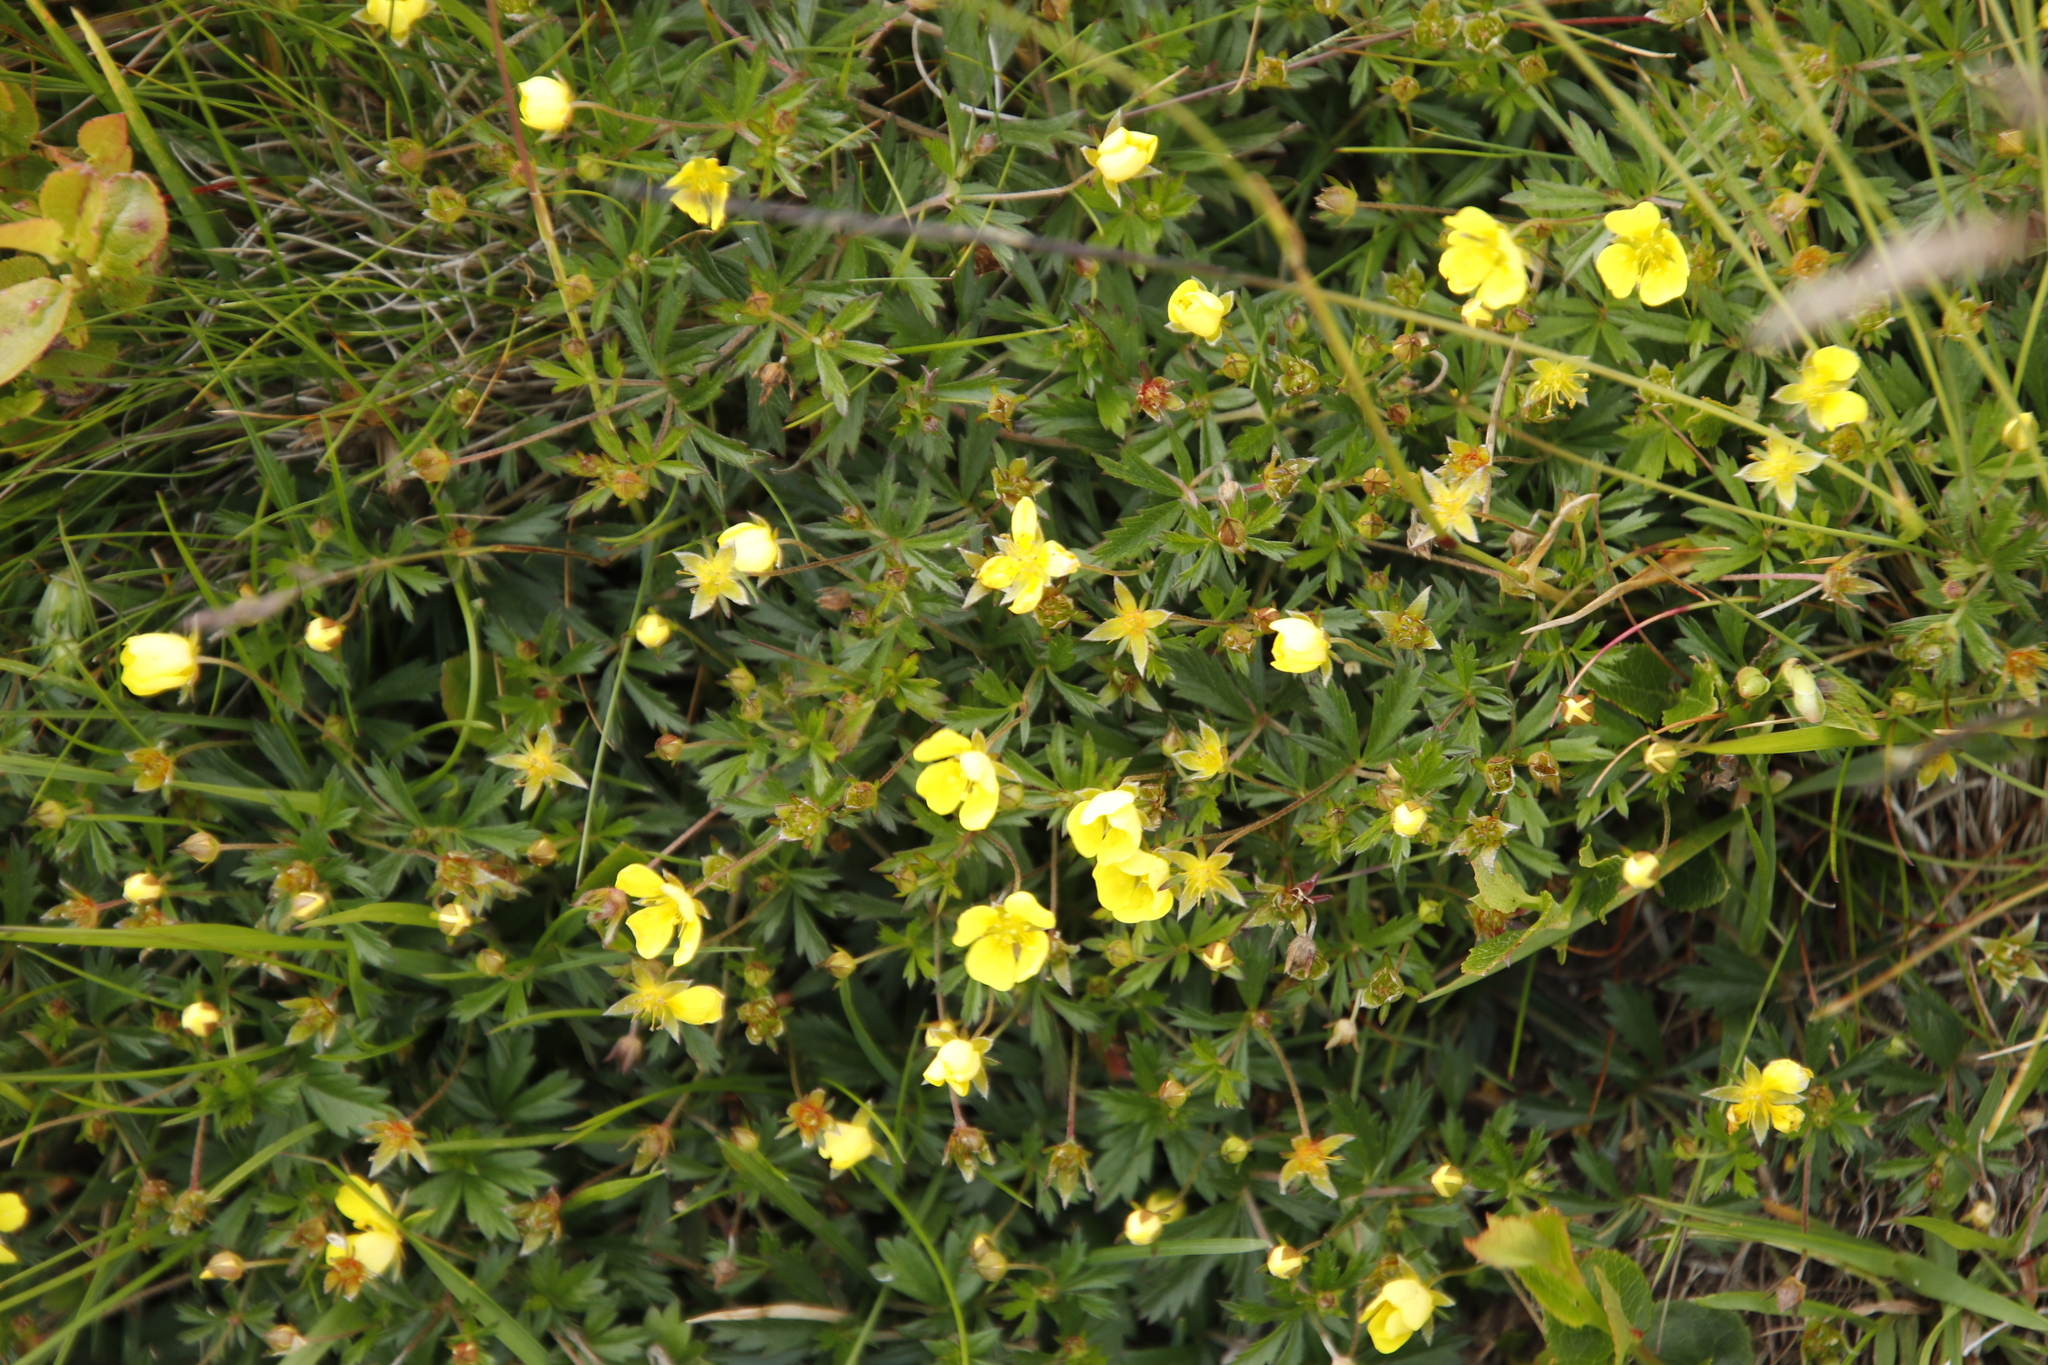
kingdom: Plantae
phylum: Tracheophyta
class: Magnoliopsida
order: Rosales
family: Rosaceae
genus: Potentilla
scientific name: Potentilla erecta
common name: Tormentil
